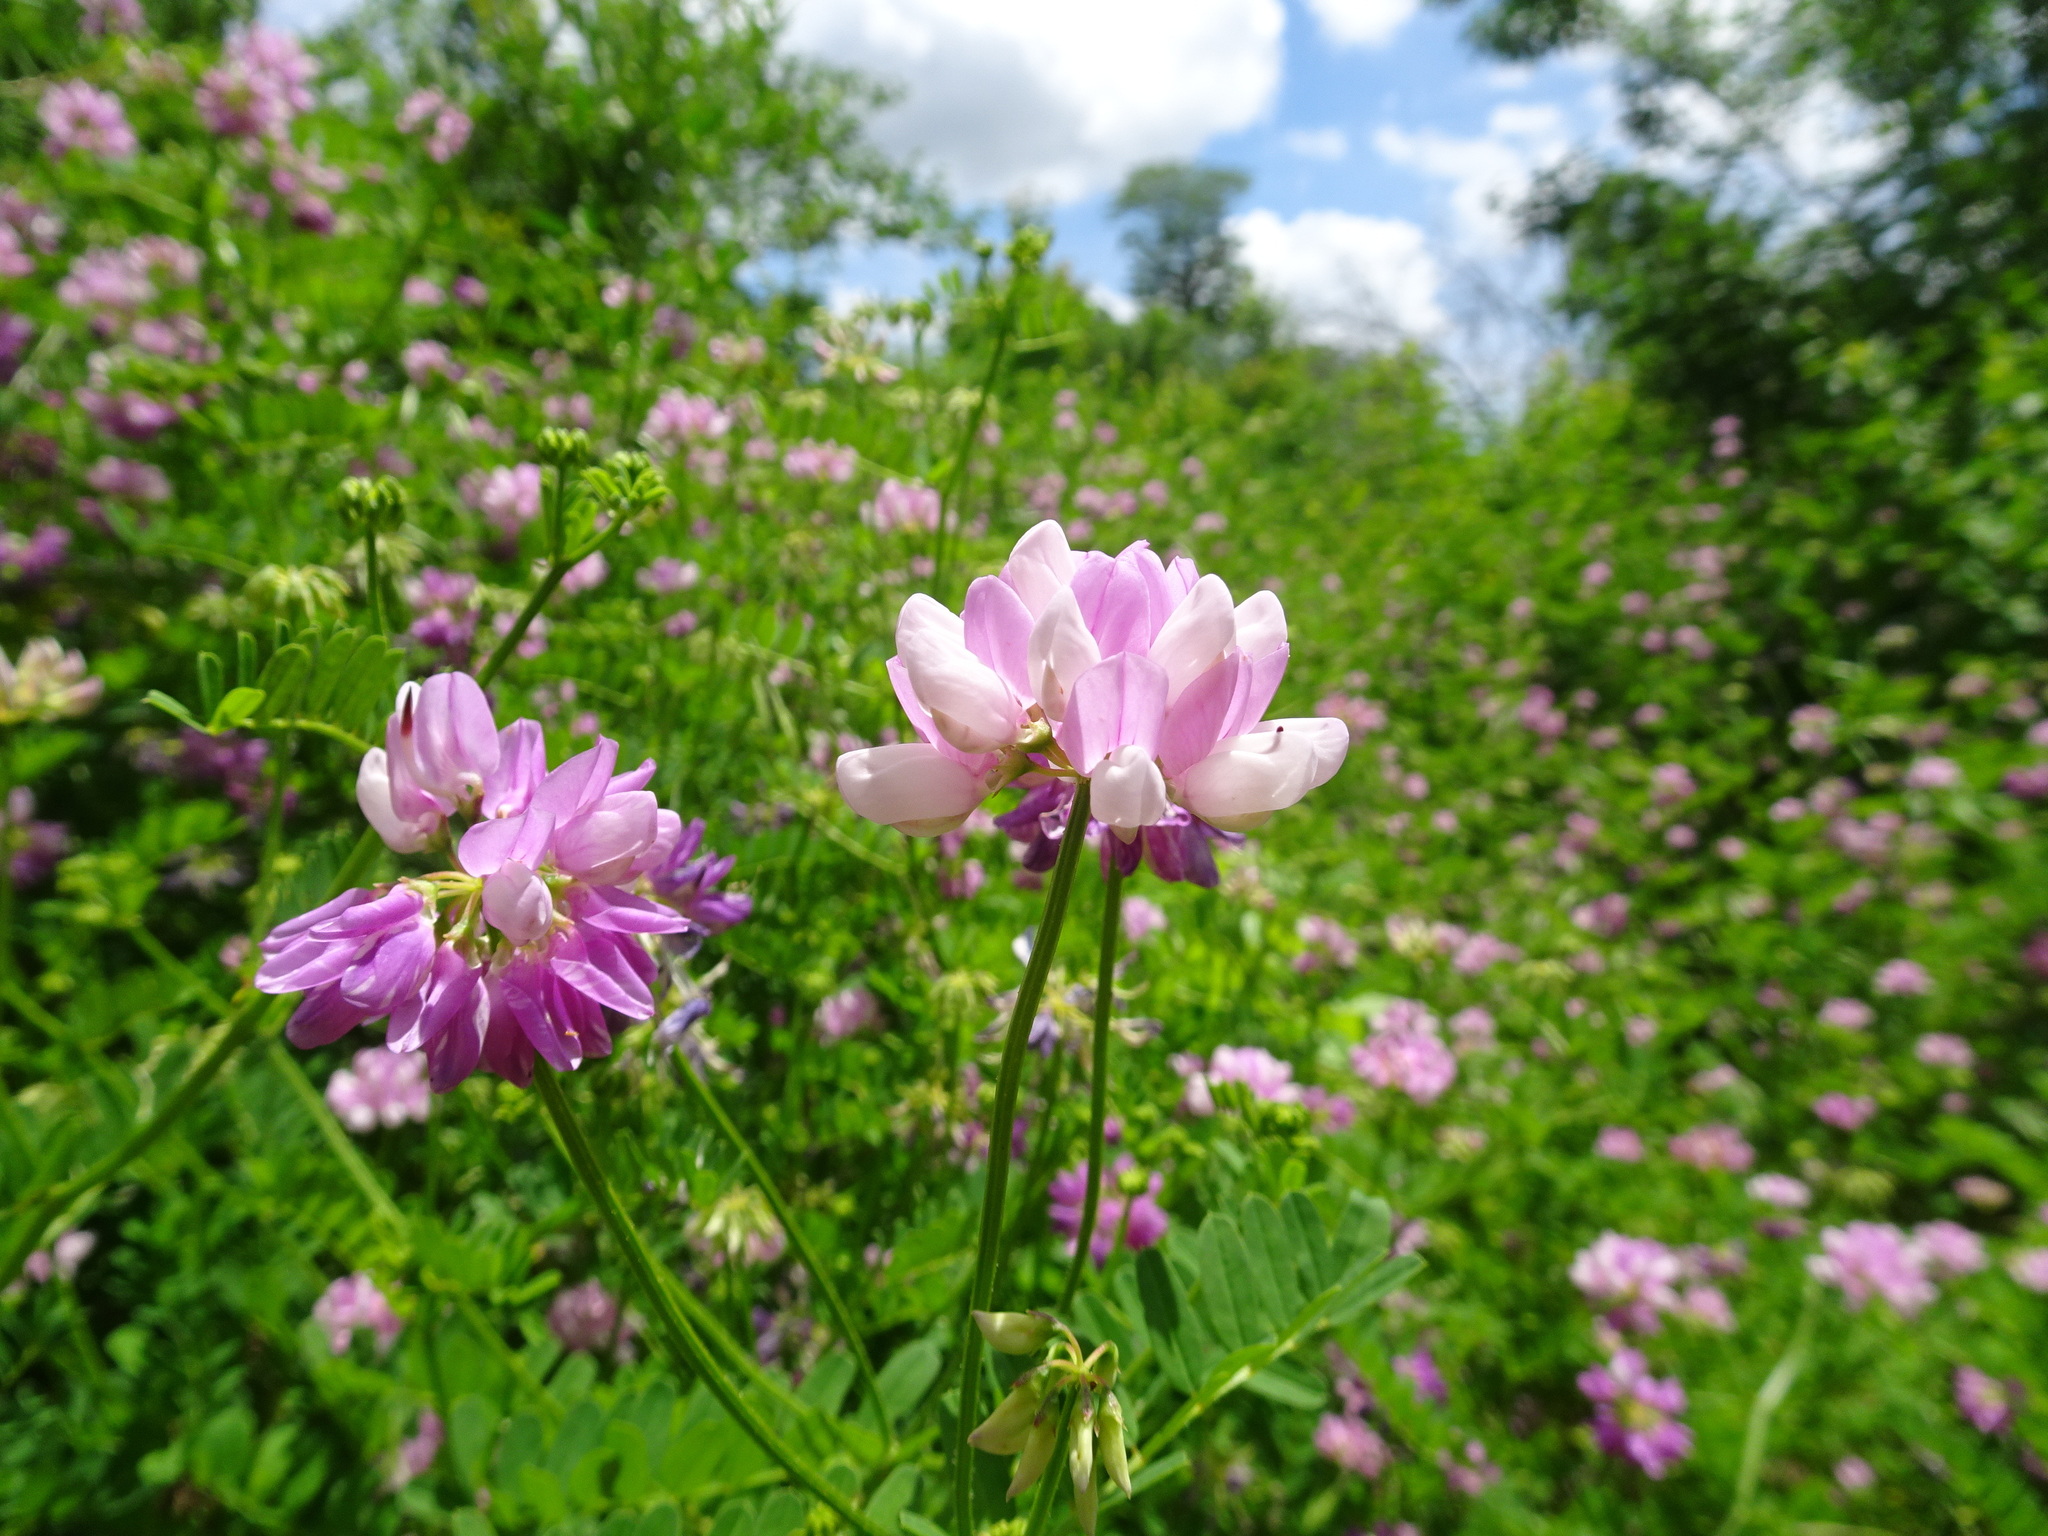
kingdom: Plantae
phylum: Tracheophyta
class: Magnoliopsida
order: Fabales
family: Fabaceae
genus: Coronilla
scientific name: Coronilla varia
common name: Crownvetch
